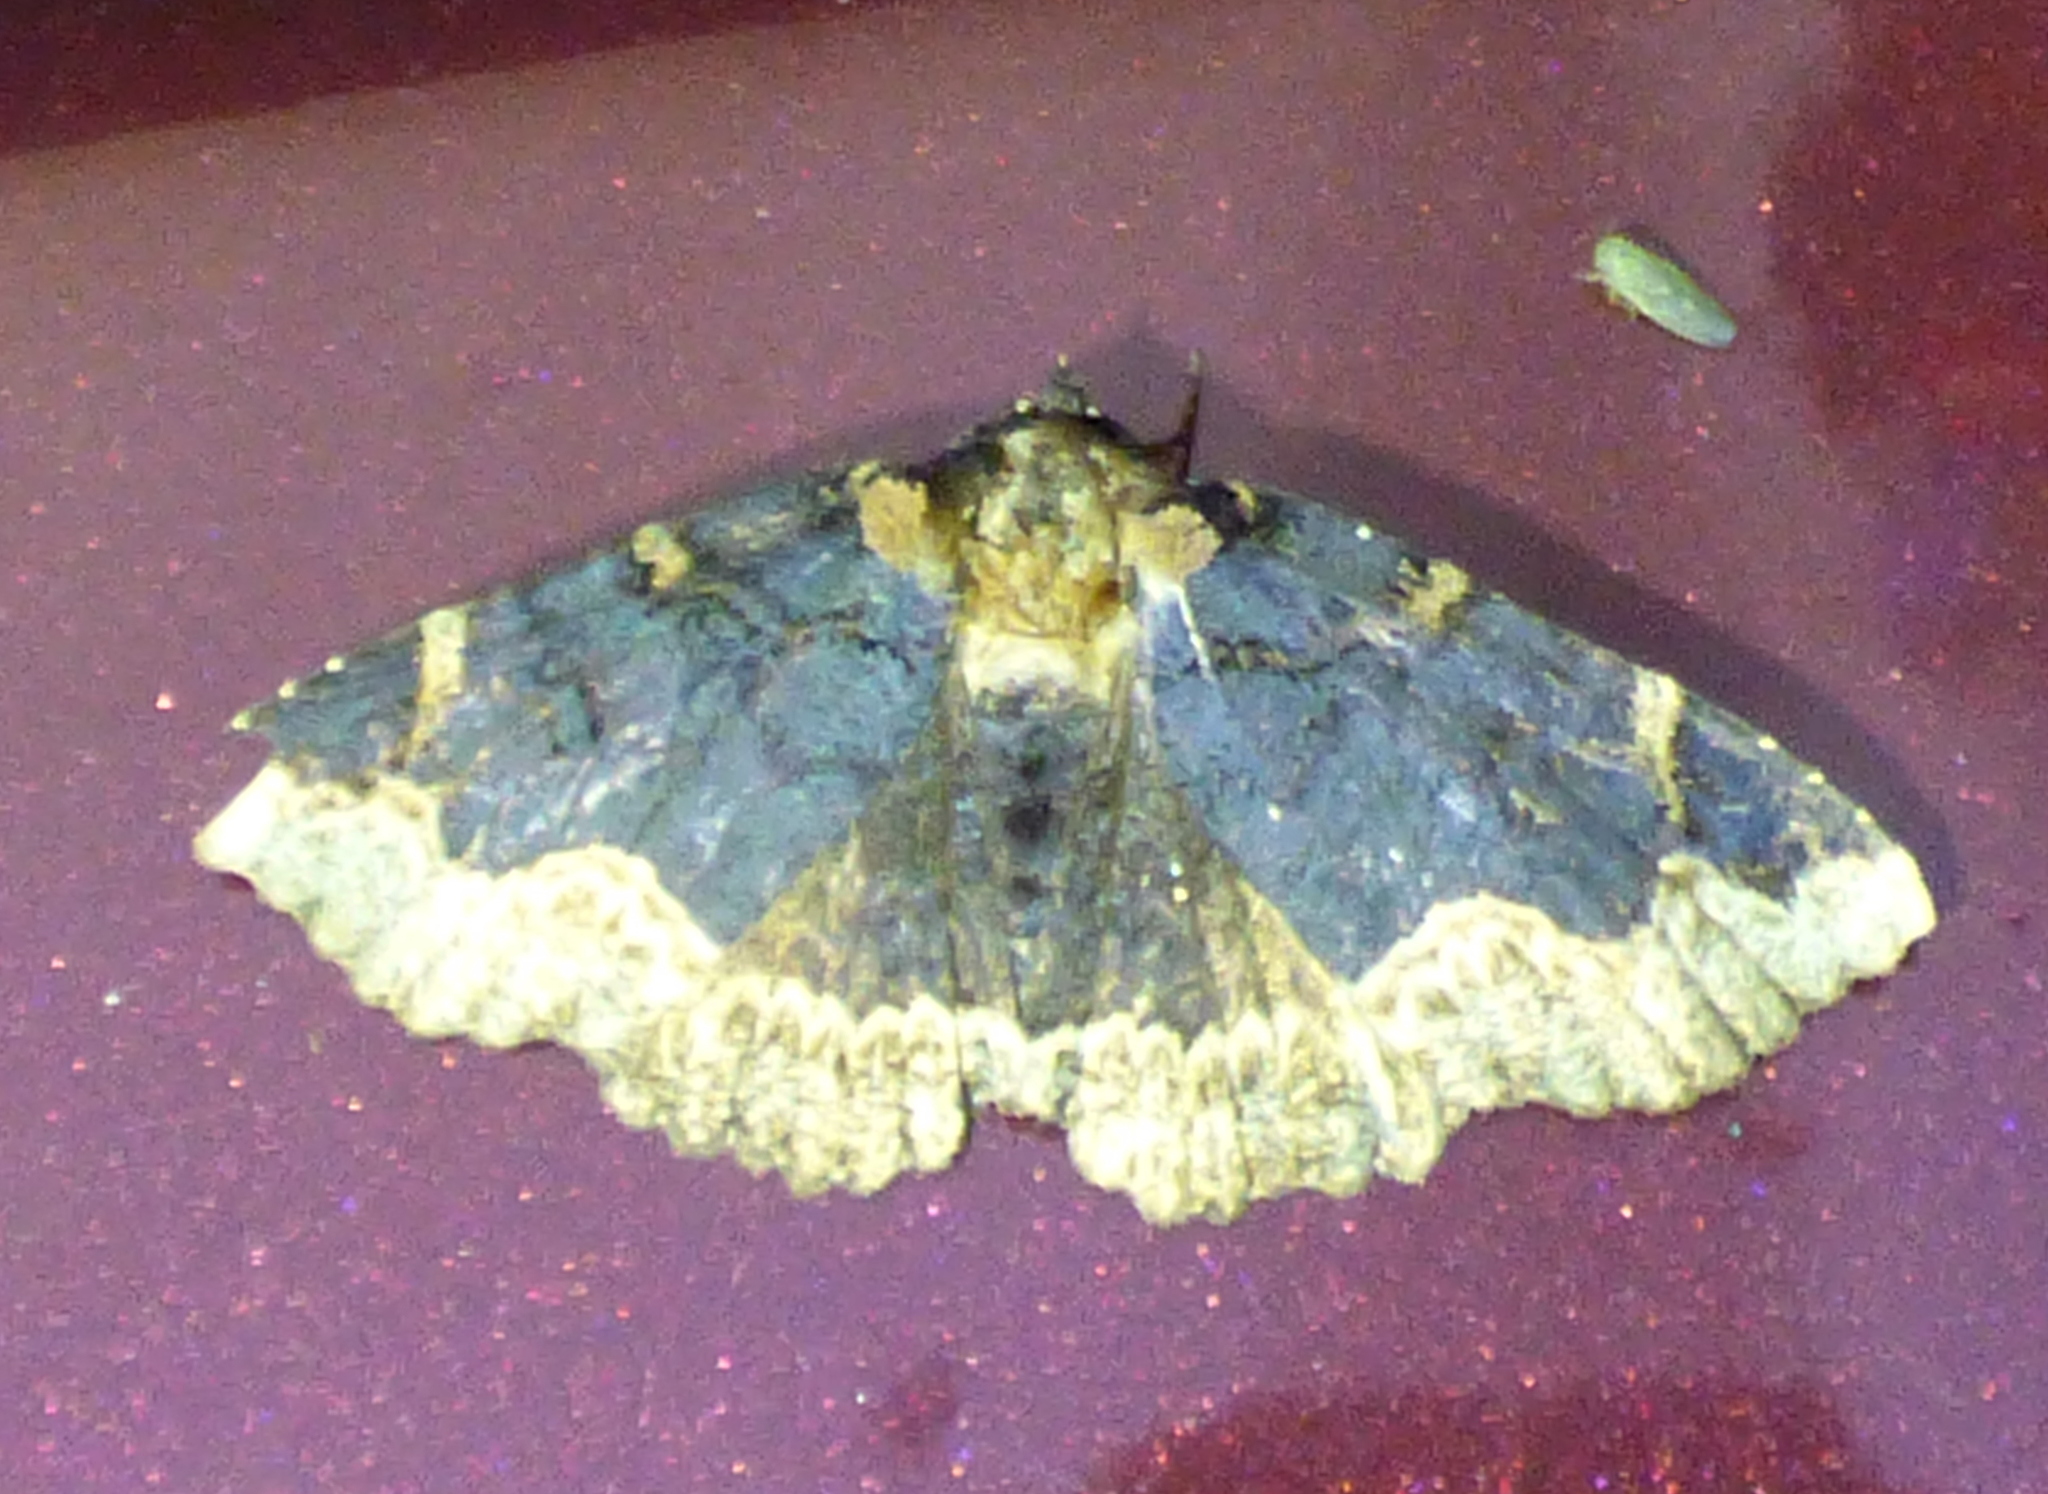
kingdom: Animalia
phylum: Arthropoda
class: Insecta
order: Lepidoptera
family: Erebidae
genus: Zale
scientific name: Zale horrida
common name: Horrid zale moth
